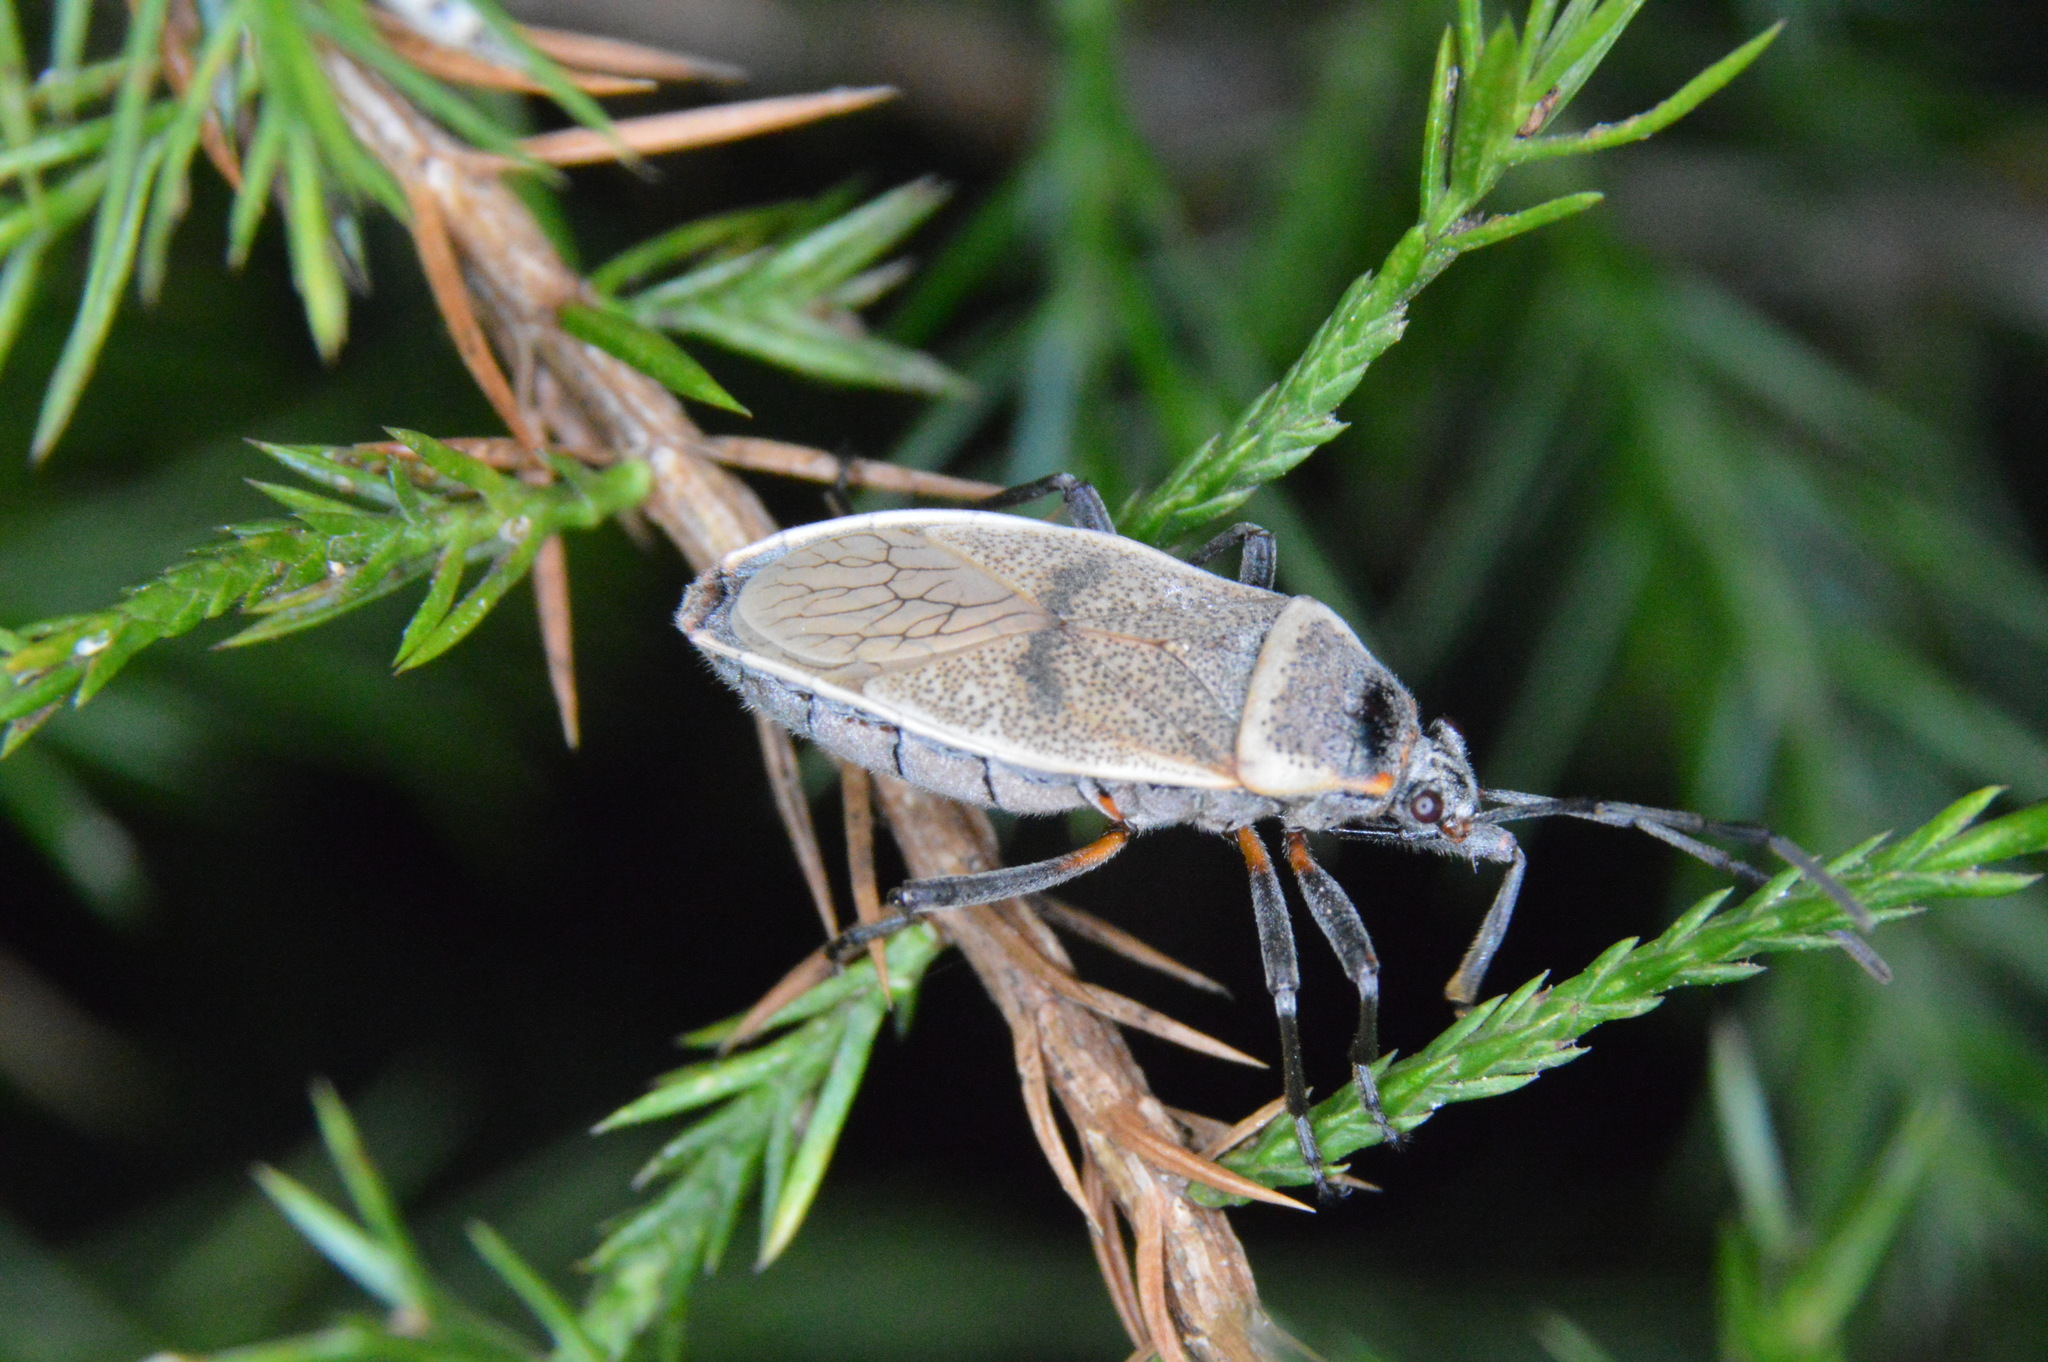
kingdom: Animalia
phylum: Arthropoda
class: Insecta
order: Hemiptera
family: Largidae
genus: Largus
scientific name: Largus maculatus
